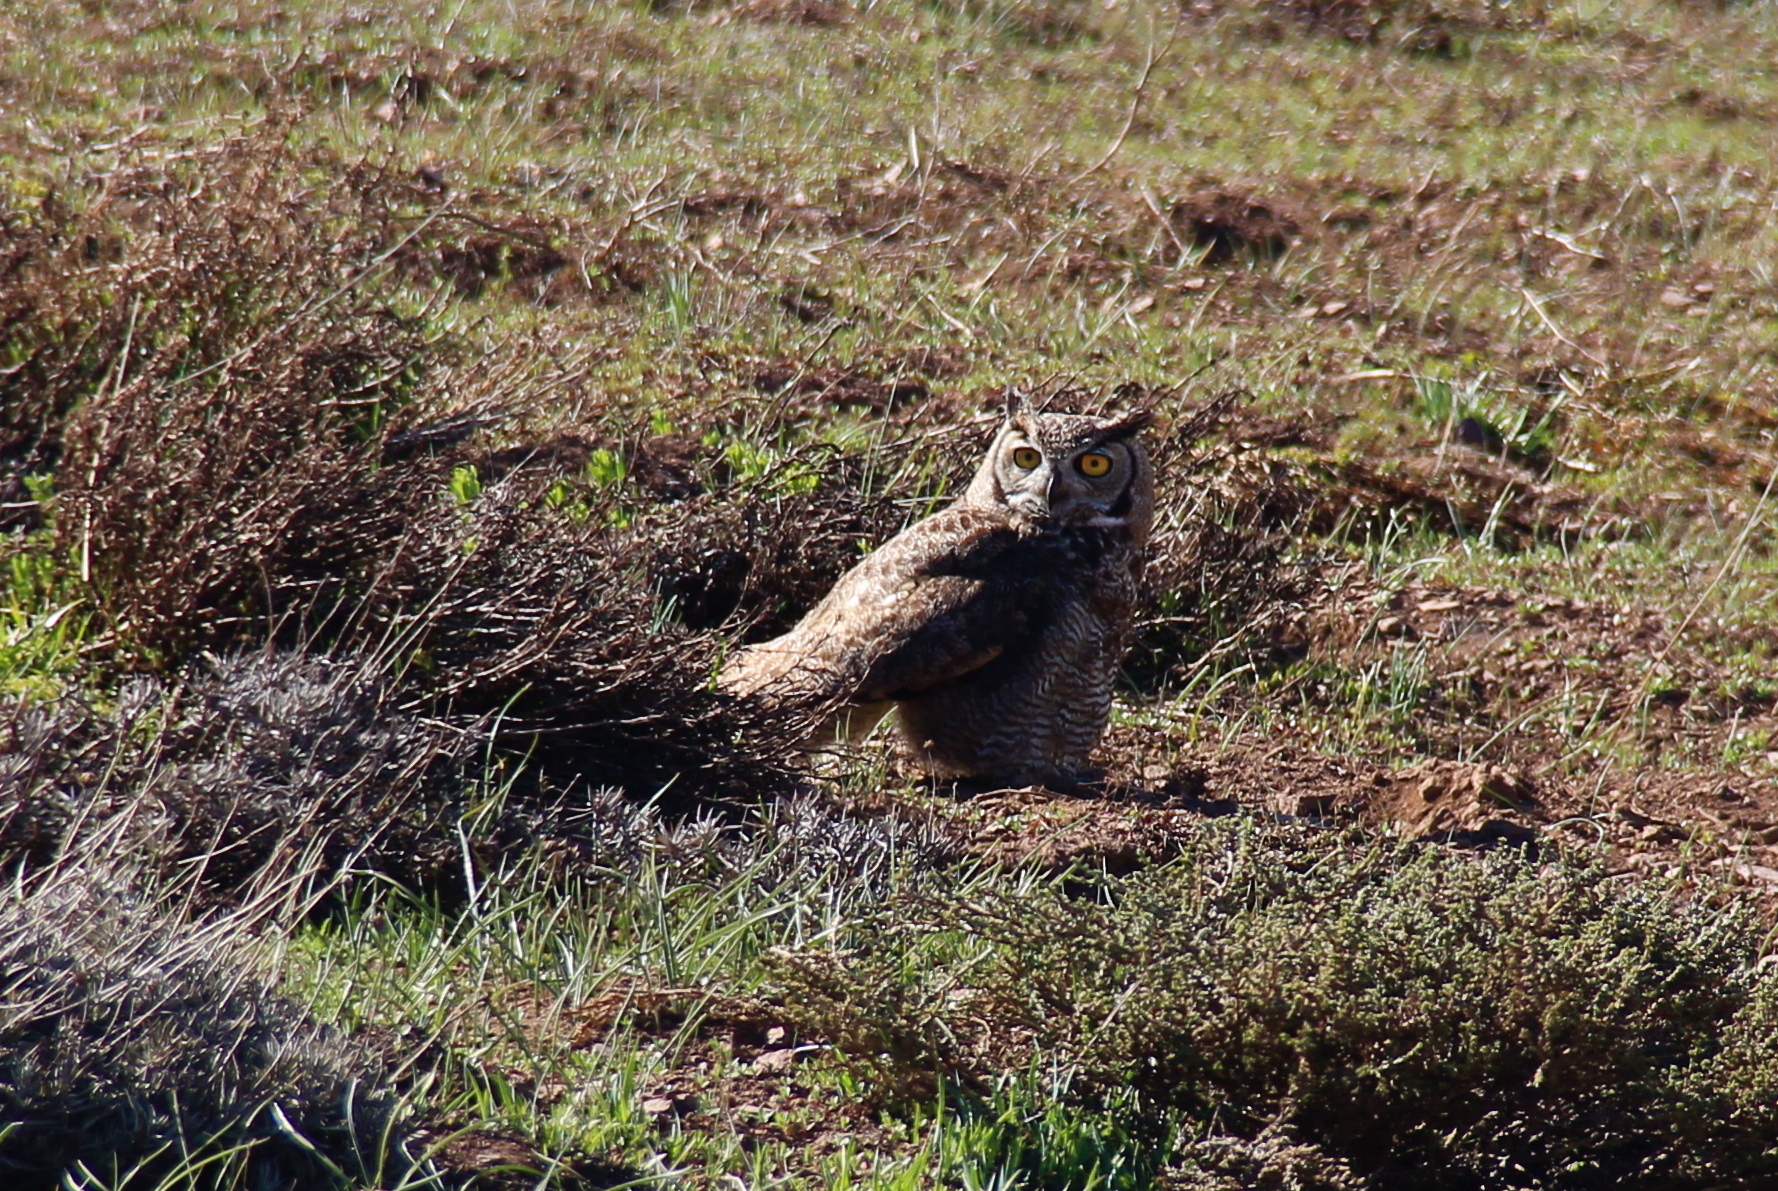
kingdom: Animalia
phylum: Chordata
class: Aves
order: Strigiformes
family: Strigidae
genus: Bubo
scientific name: Bubo magellanicus
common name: Lesser horned owl
